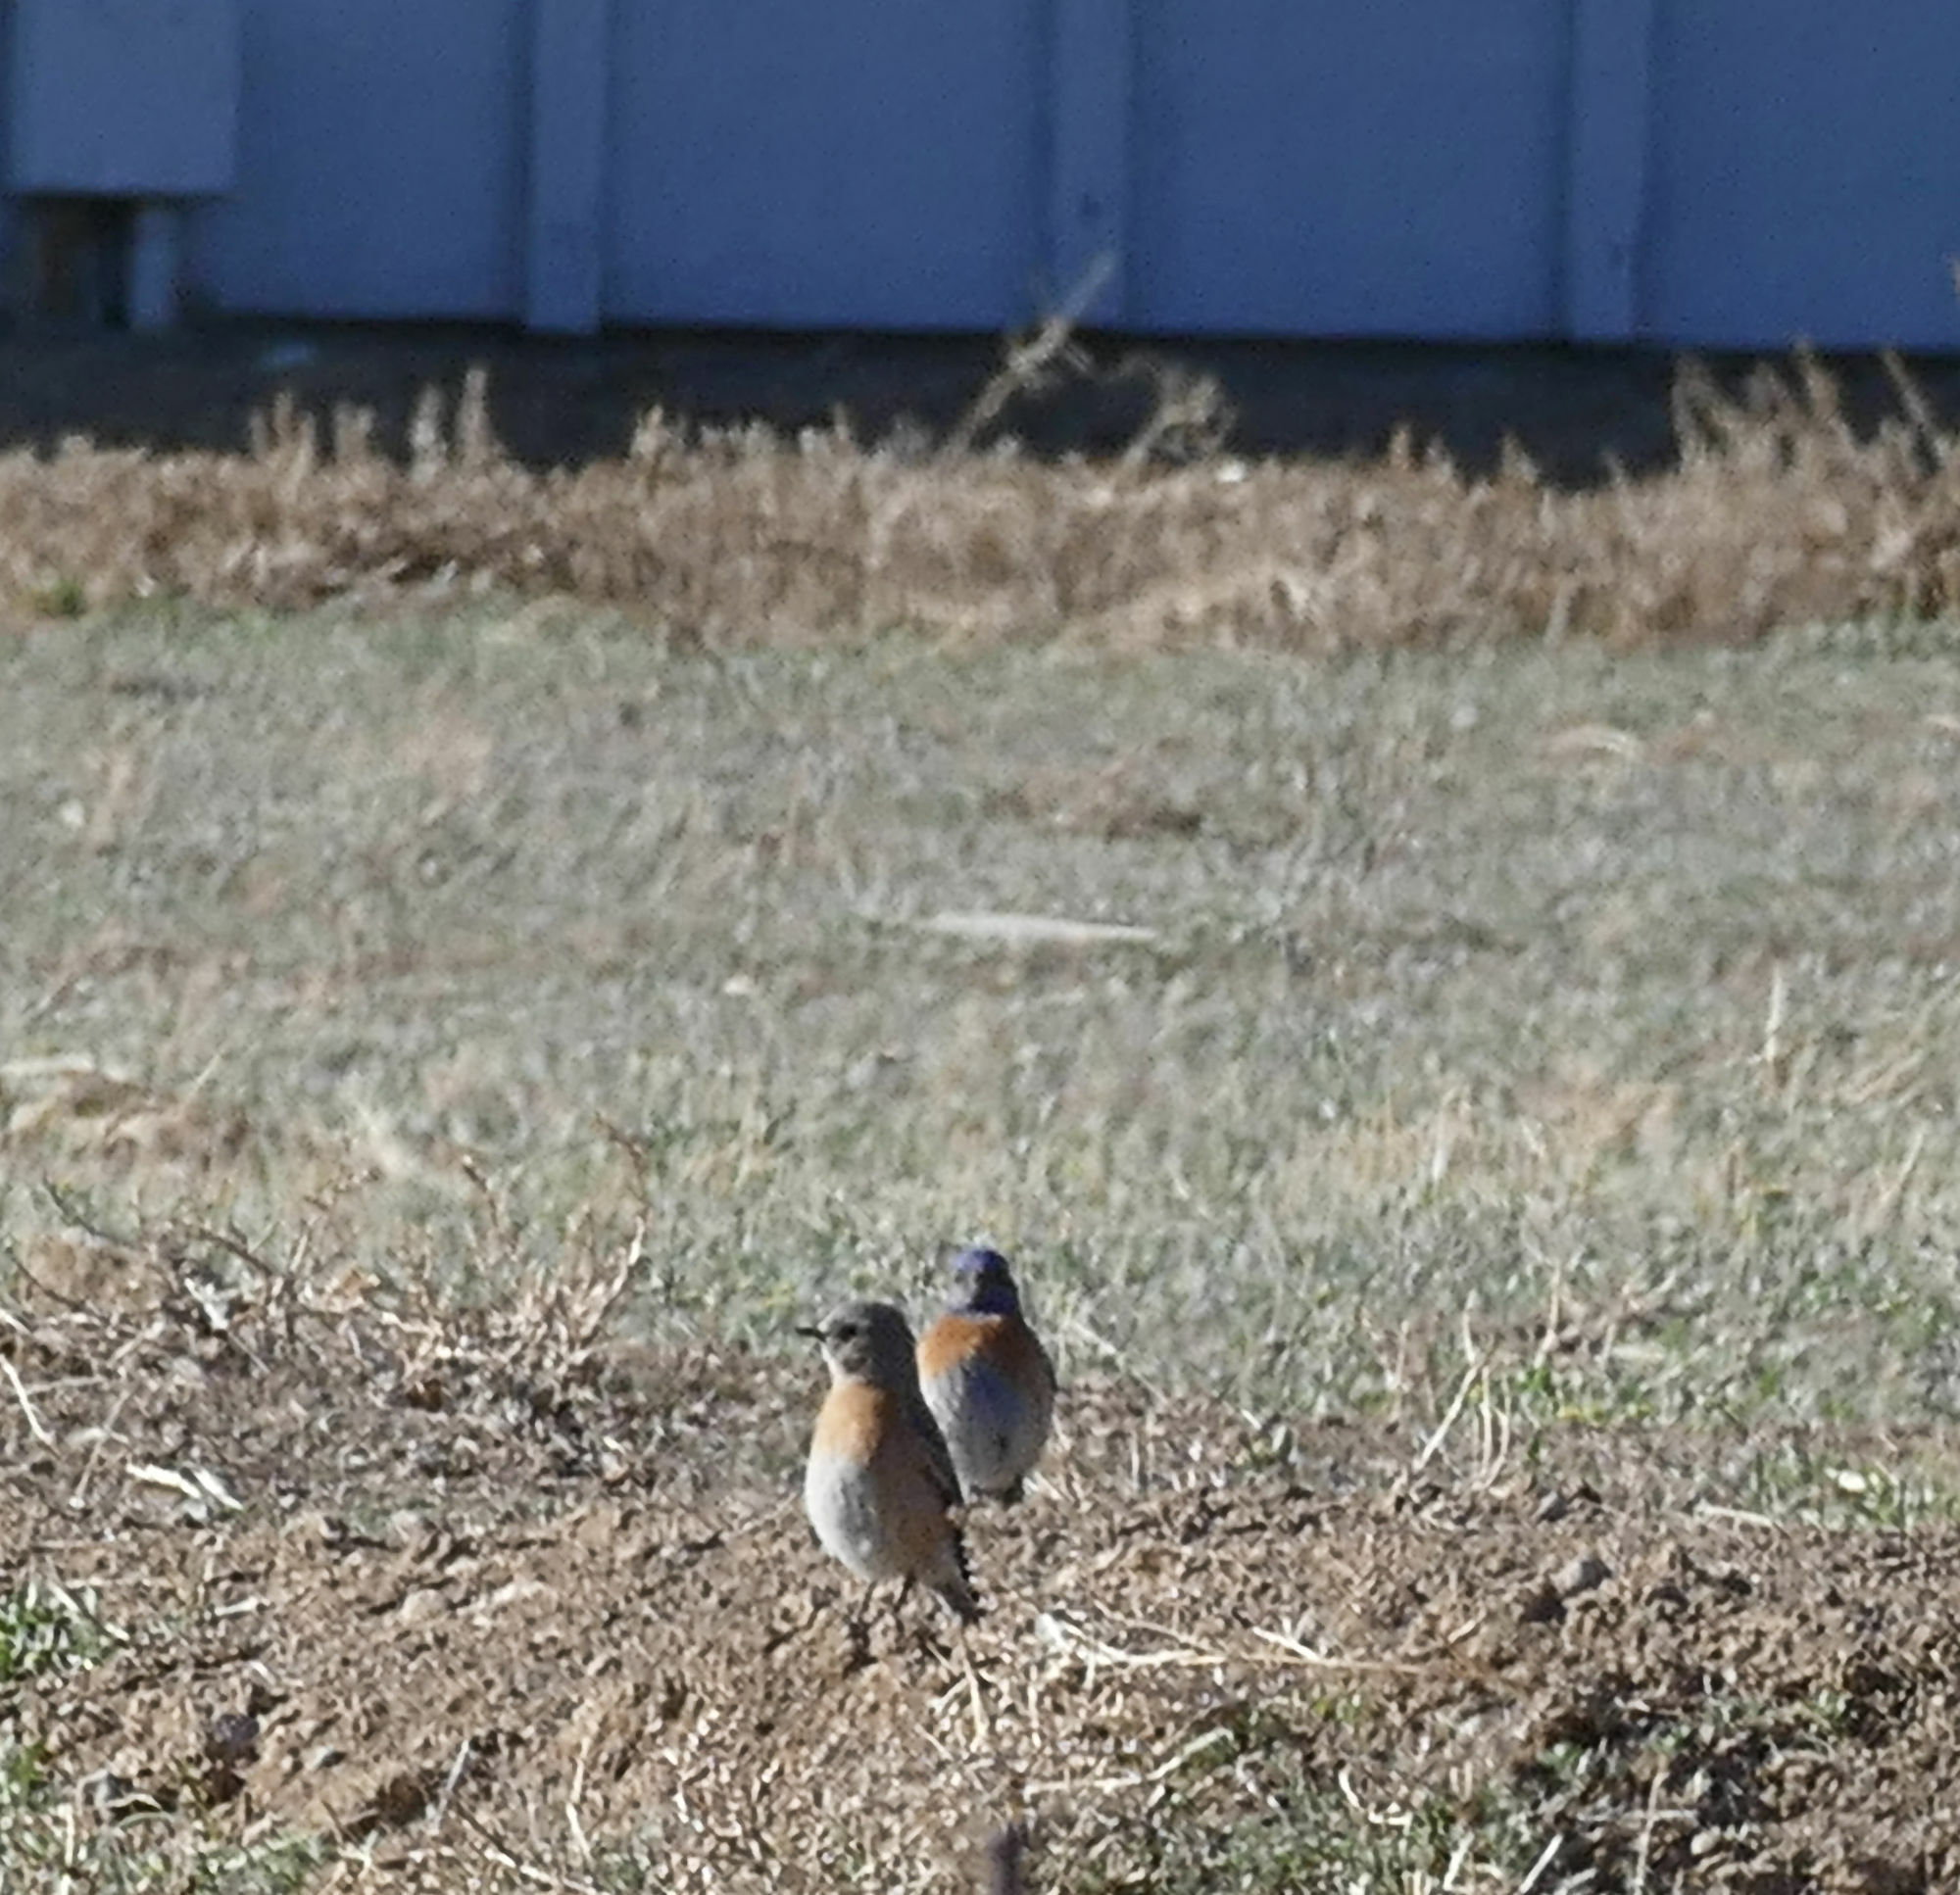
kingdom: Animalia
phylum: Chordata
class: Aves
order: Passeriformes
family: Turdidae
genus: Sialia
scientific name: Sialia mexicana
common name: Western bluebird
